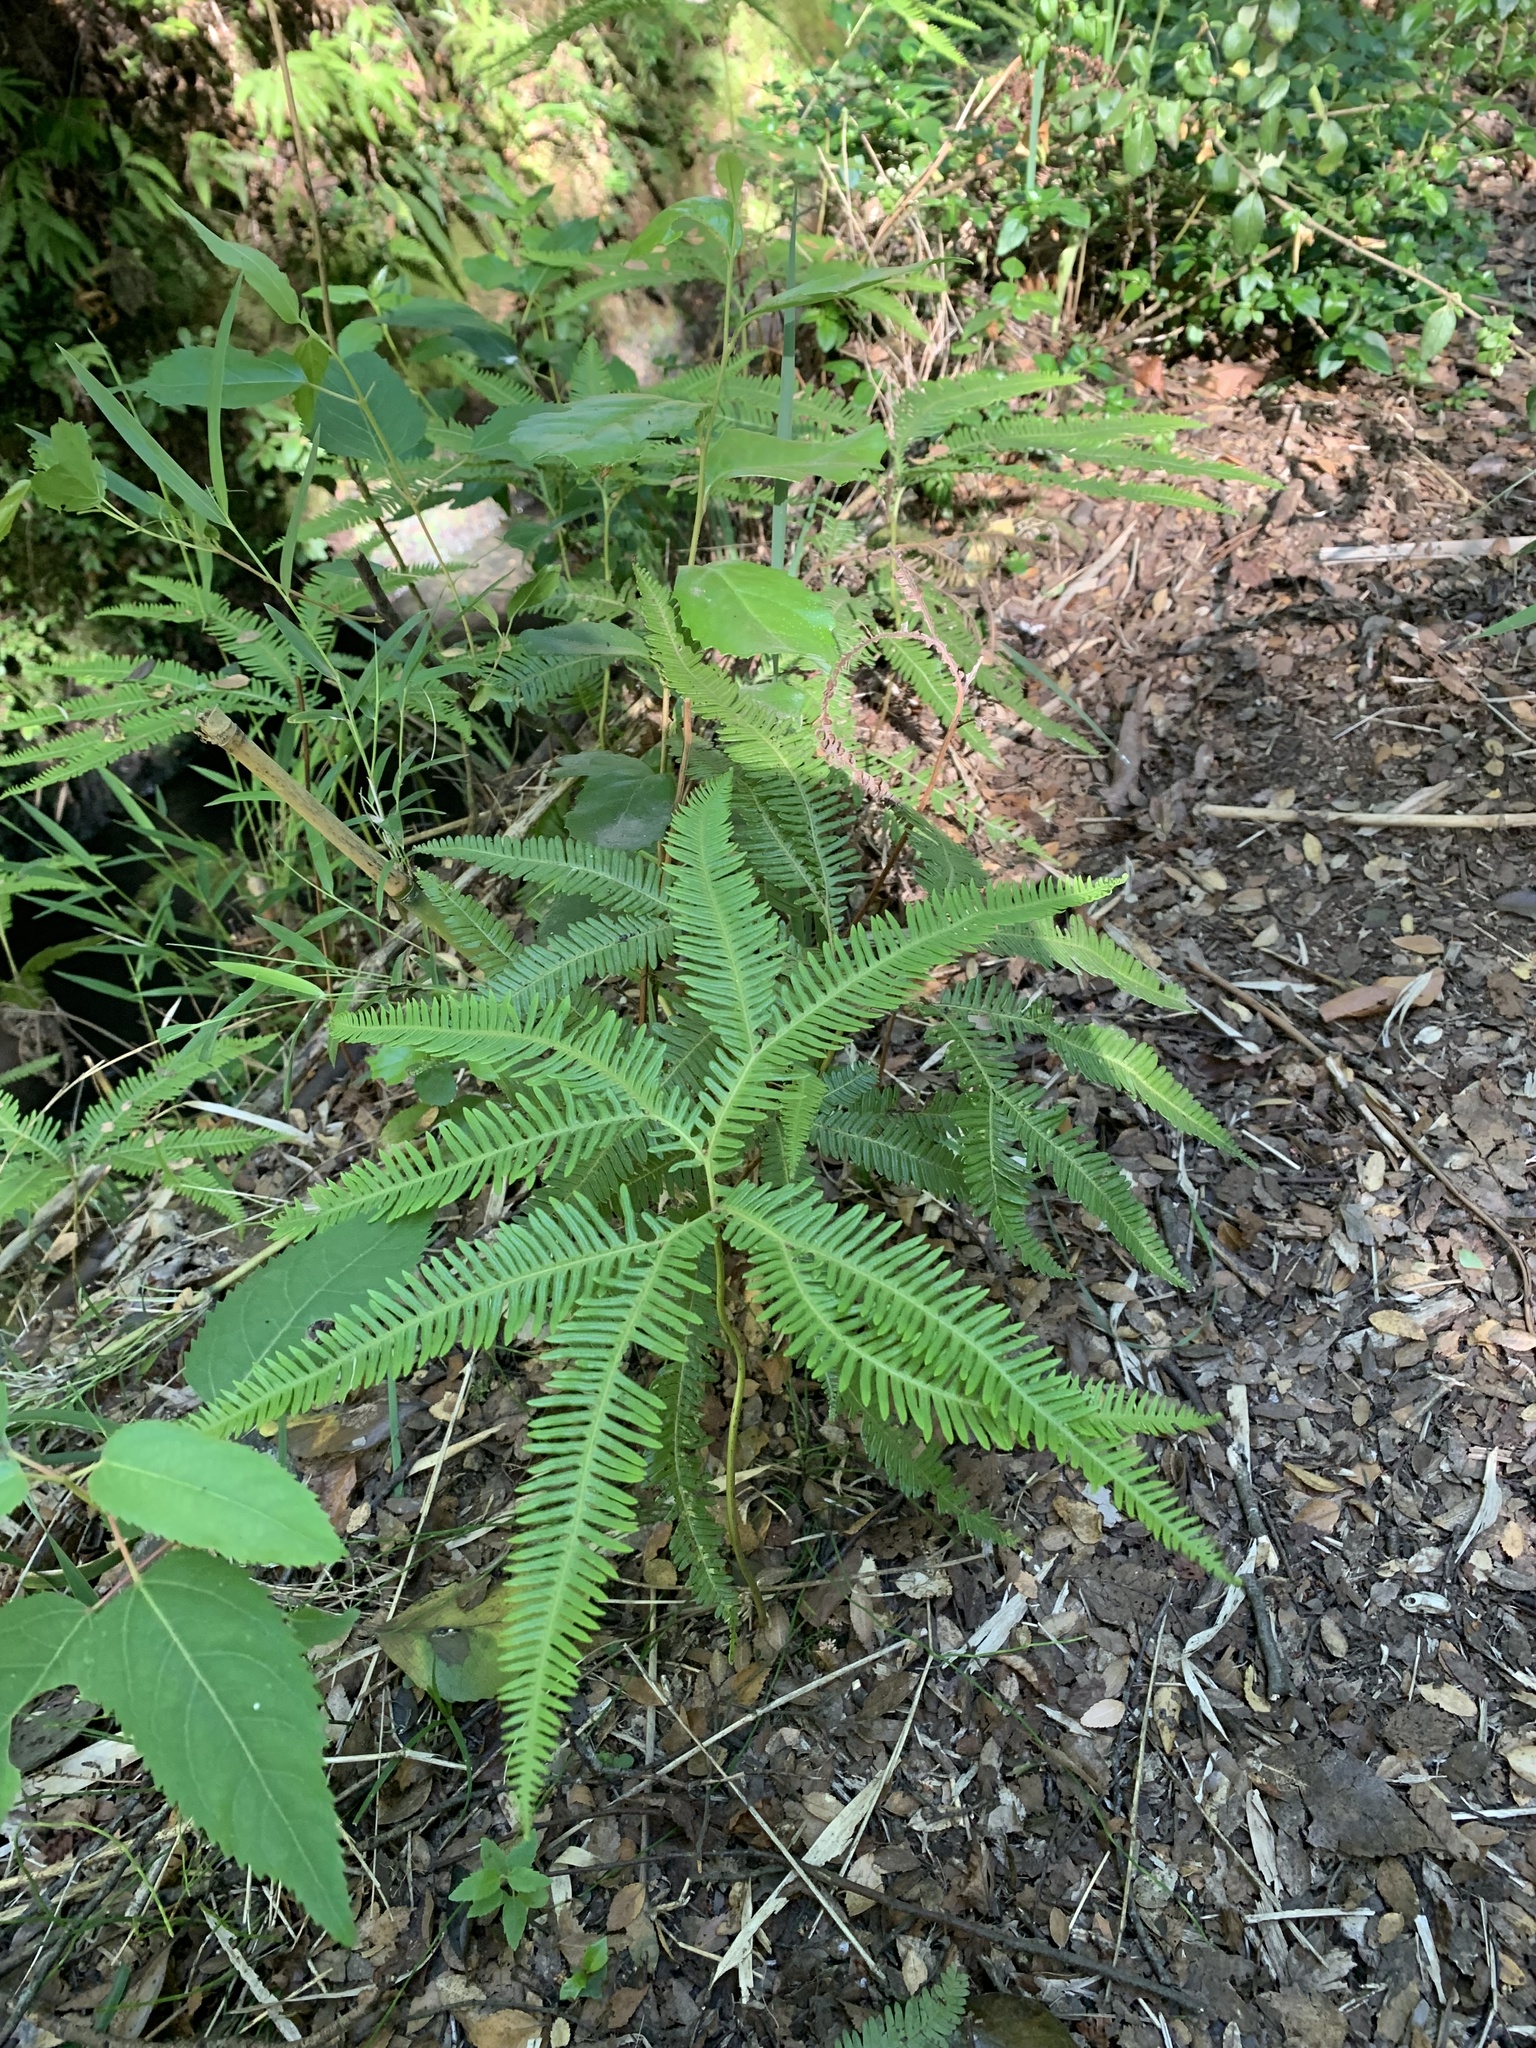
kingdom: Plantae
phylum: Tracheophyta
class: Polypodiopsida
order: Gleicheniales
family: Gleicheniaceae
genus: Sticherus
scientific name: Sticherus quadripartitus
